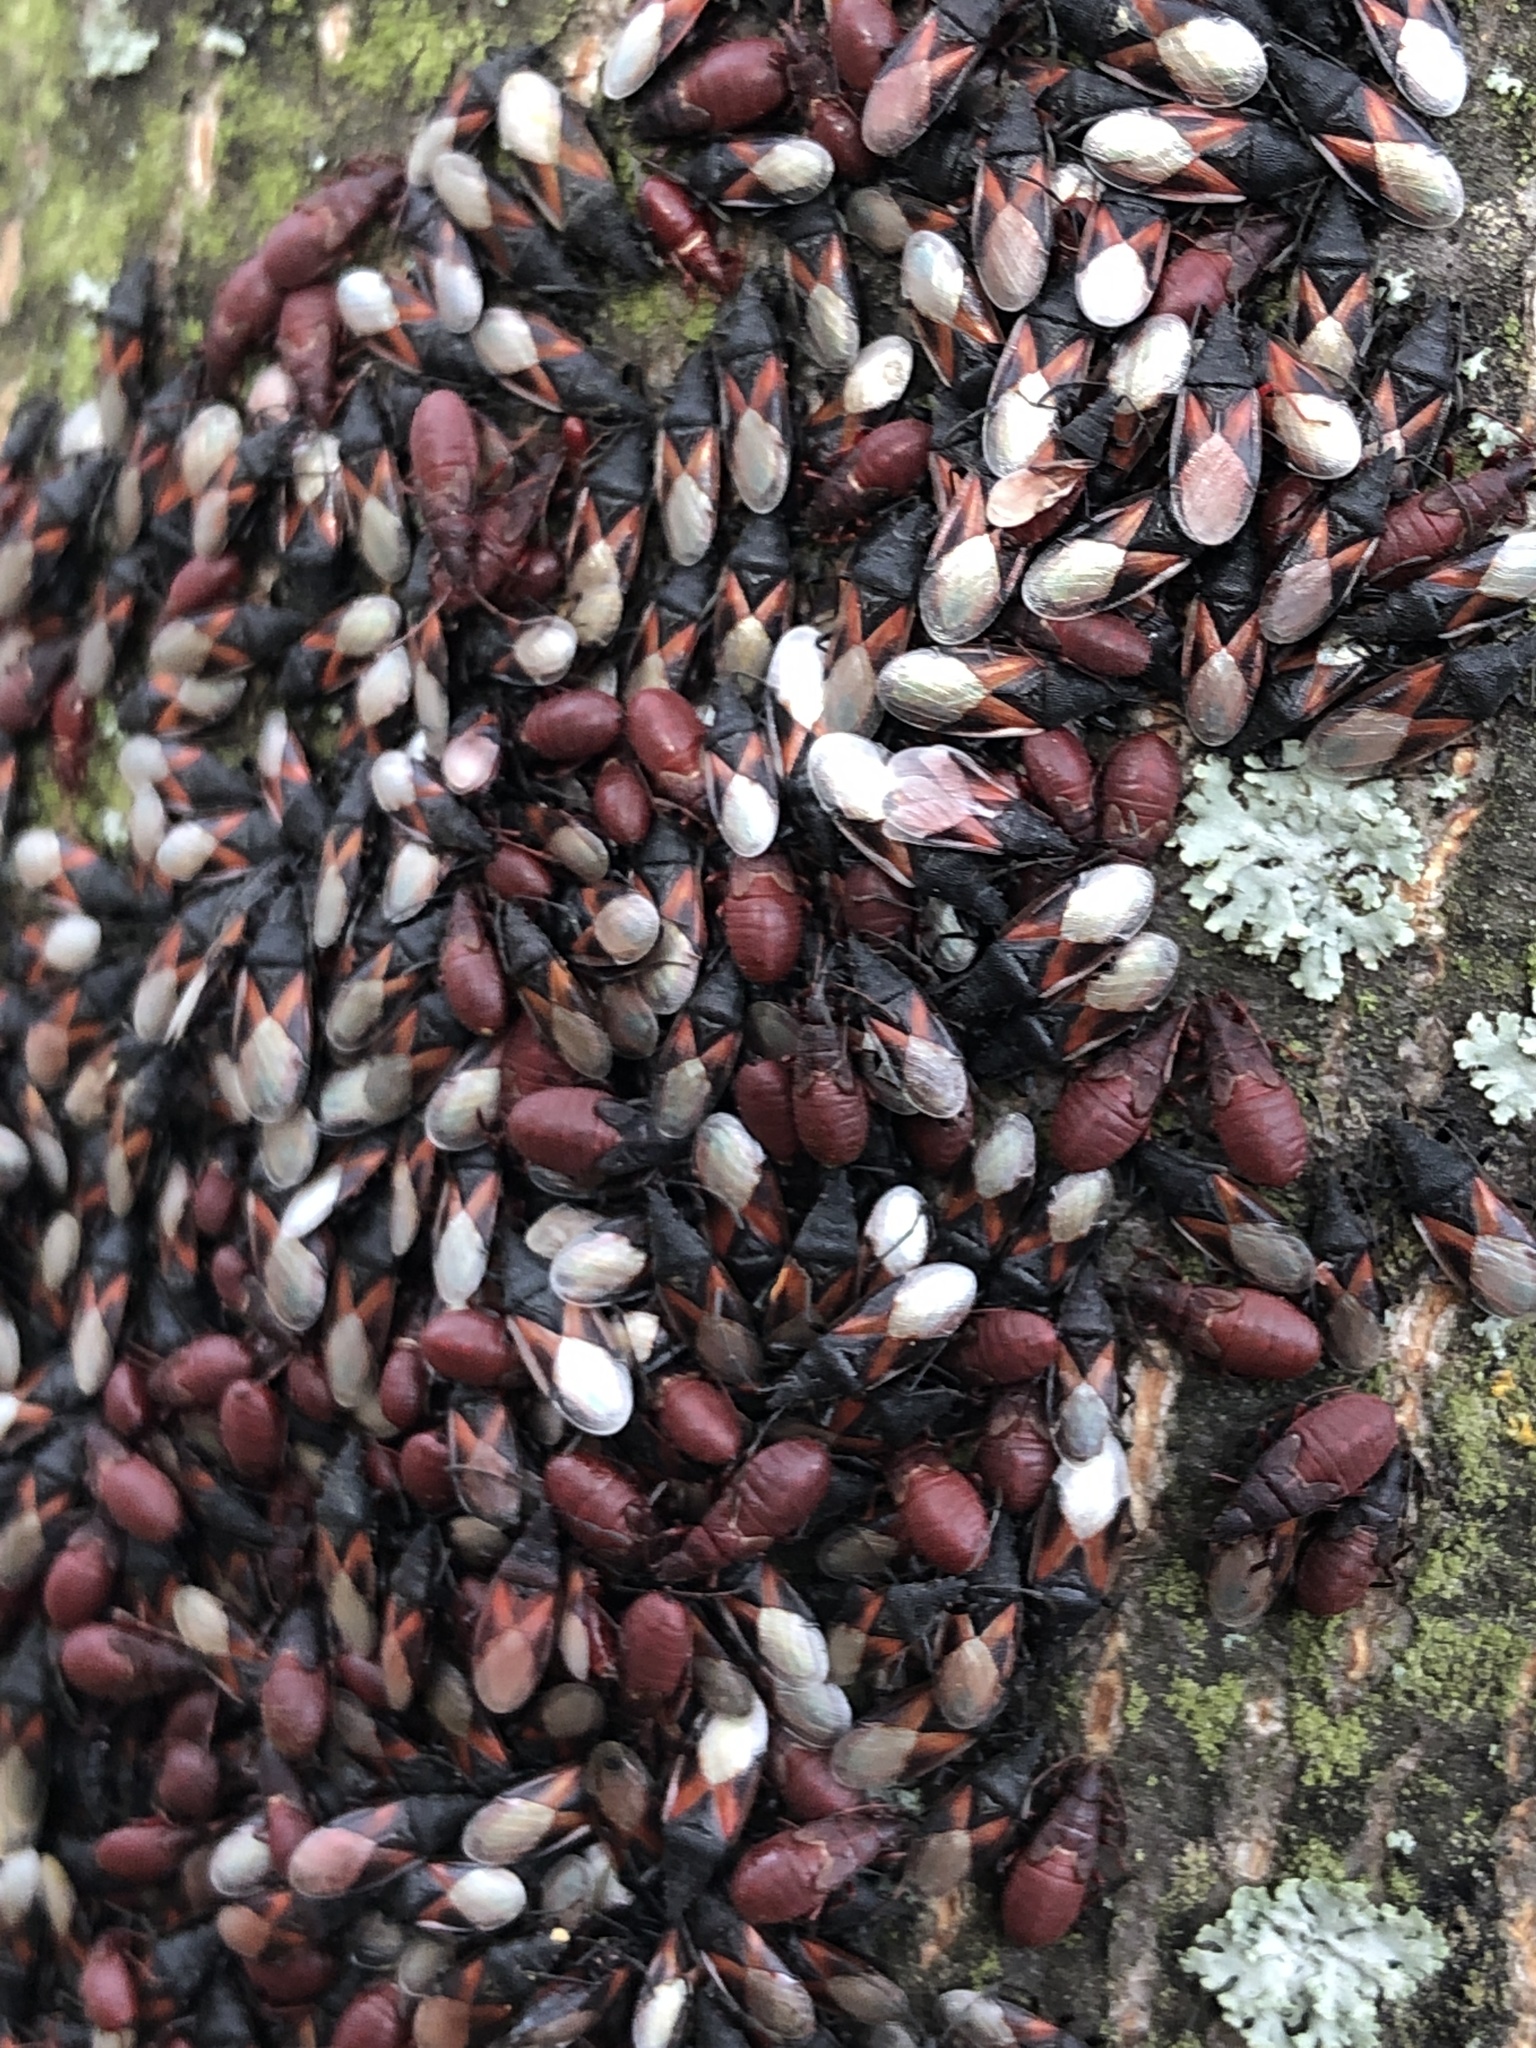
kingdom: Animalia
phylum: Arthropoda
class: Insecta
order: Hemiptera
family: Oxycarenidae
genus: Oxycarenus
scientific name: Oxycarenus lavaterae
